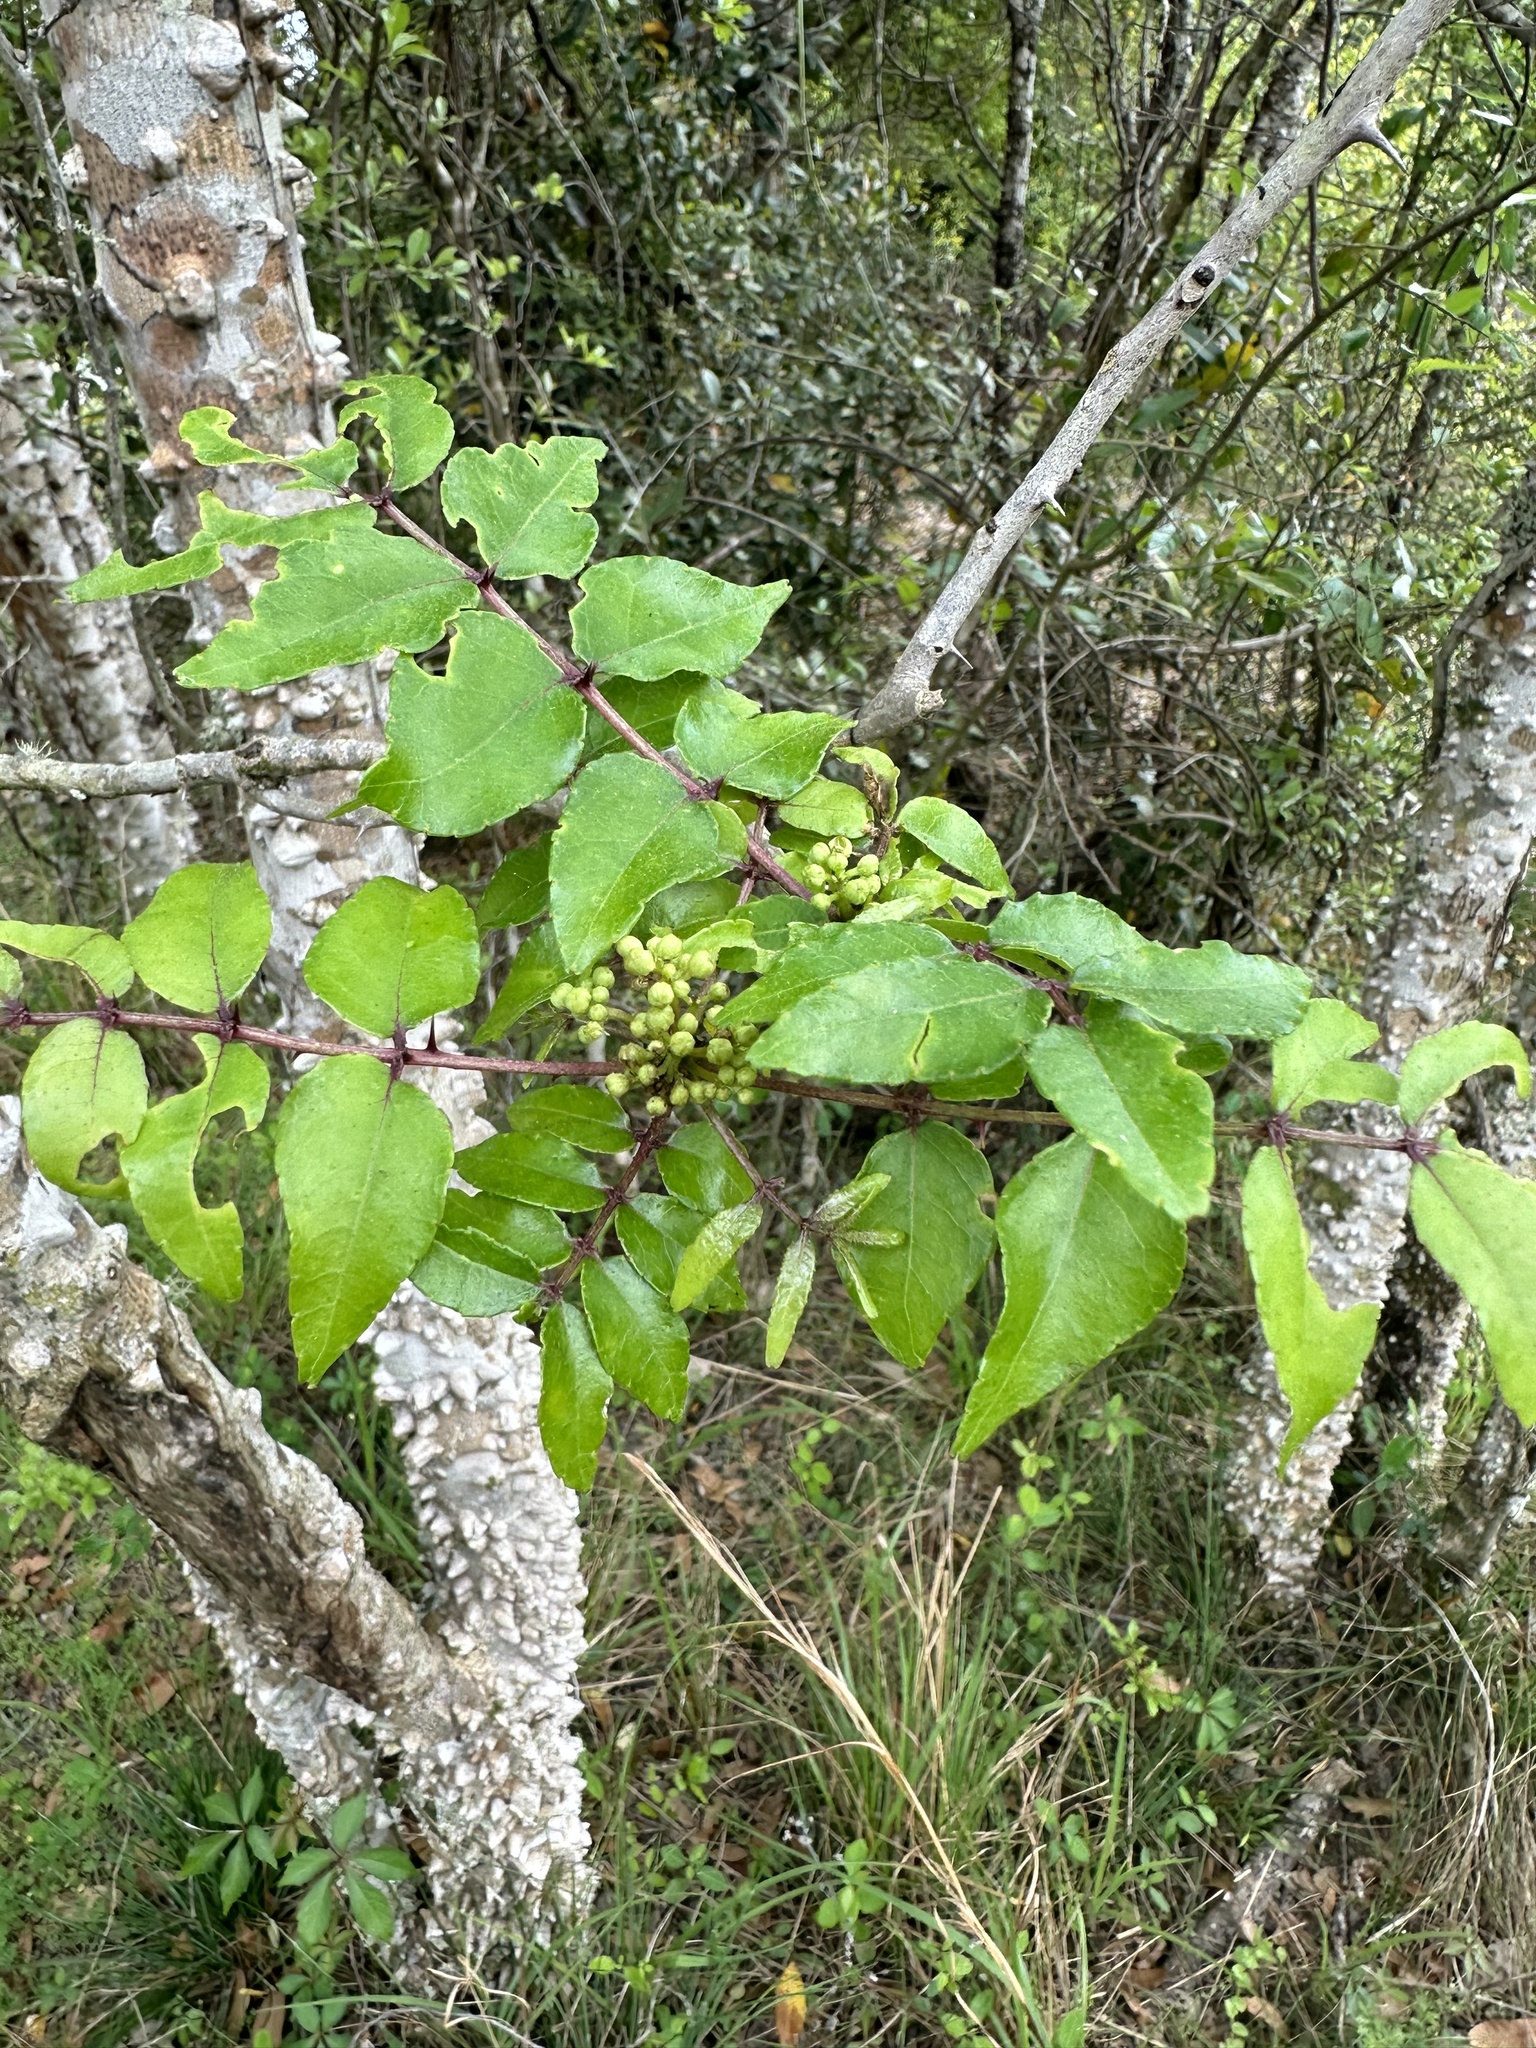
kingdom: Plantae
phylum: Tracheophyta
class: Magnoliopsida
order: Sapindales
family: Rutaceae
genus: Zanthoxylum
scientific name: Zanthoxylum clava-herculis
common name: Hercules'-club
